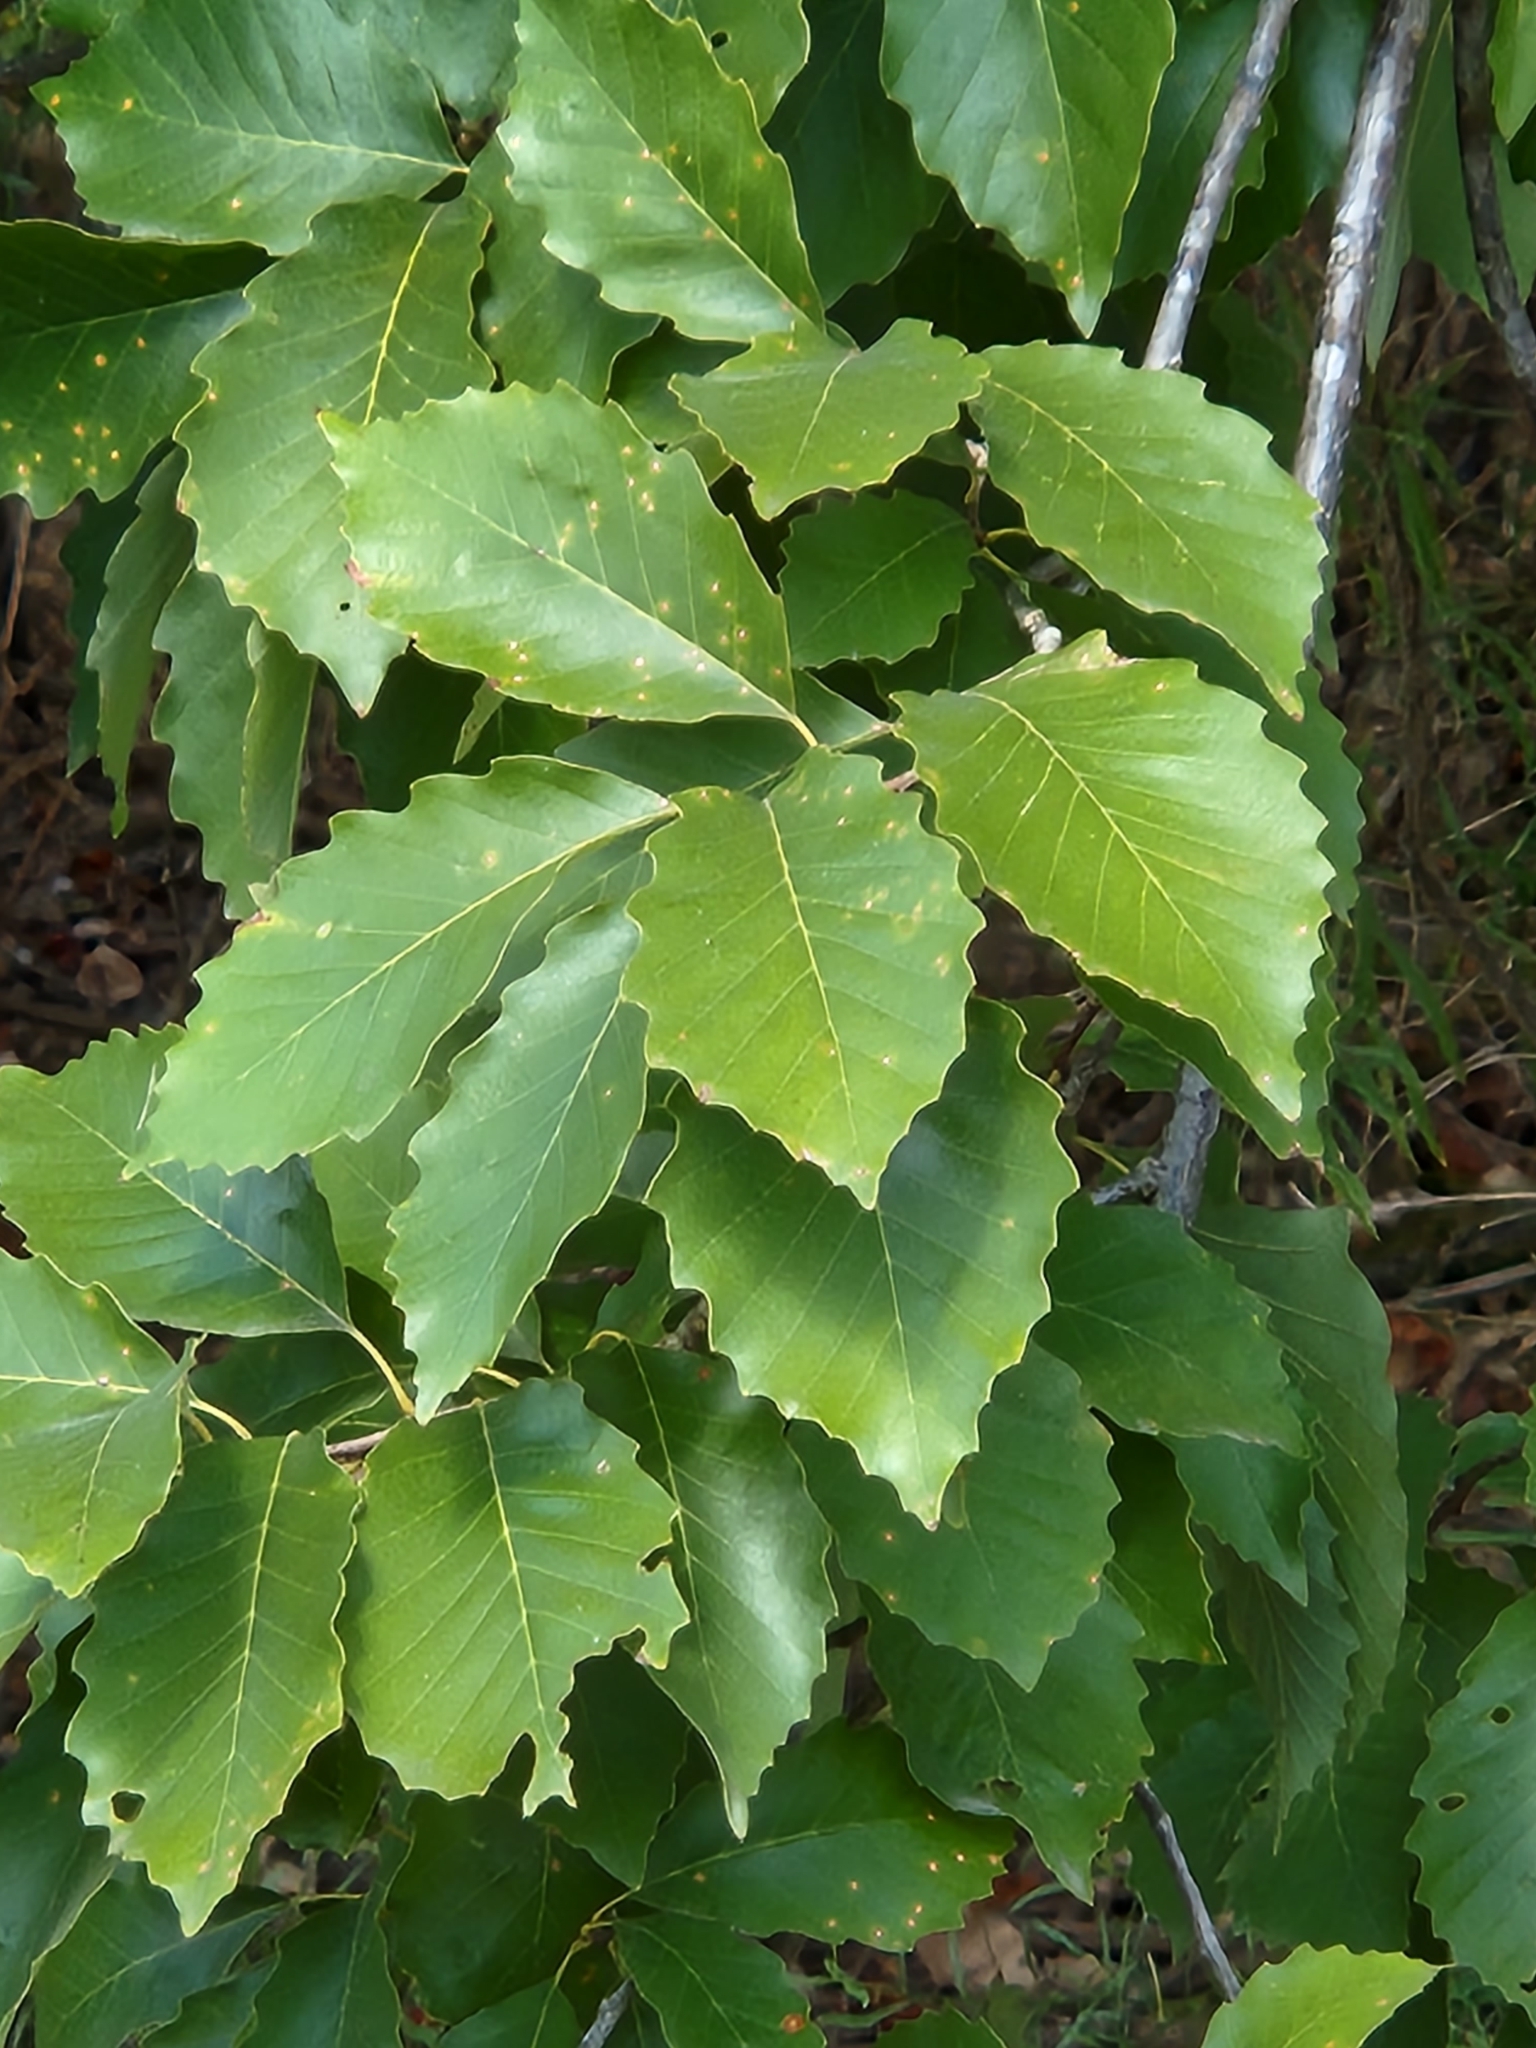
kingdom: Plantae
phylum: Tracheophyta
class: Magnoliopsida
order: Fagales
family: Fagaceae
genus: Quercus
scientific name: Quercus muehlenbergii
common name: Chinkapin oak
